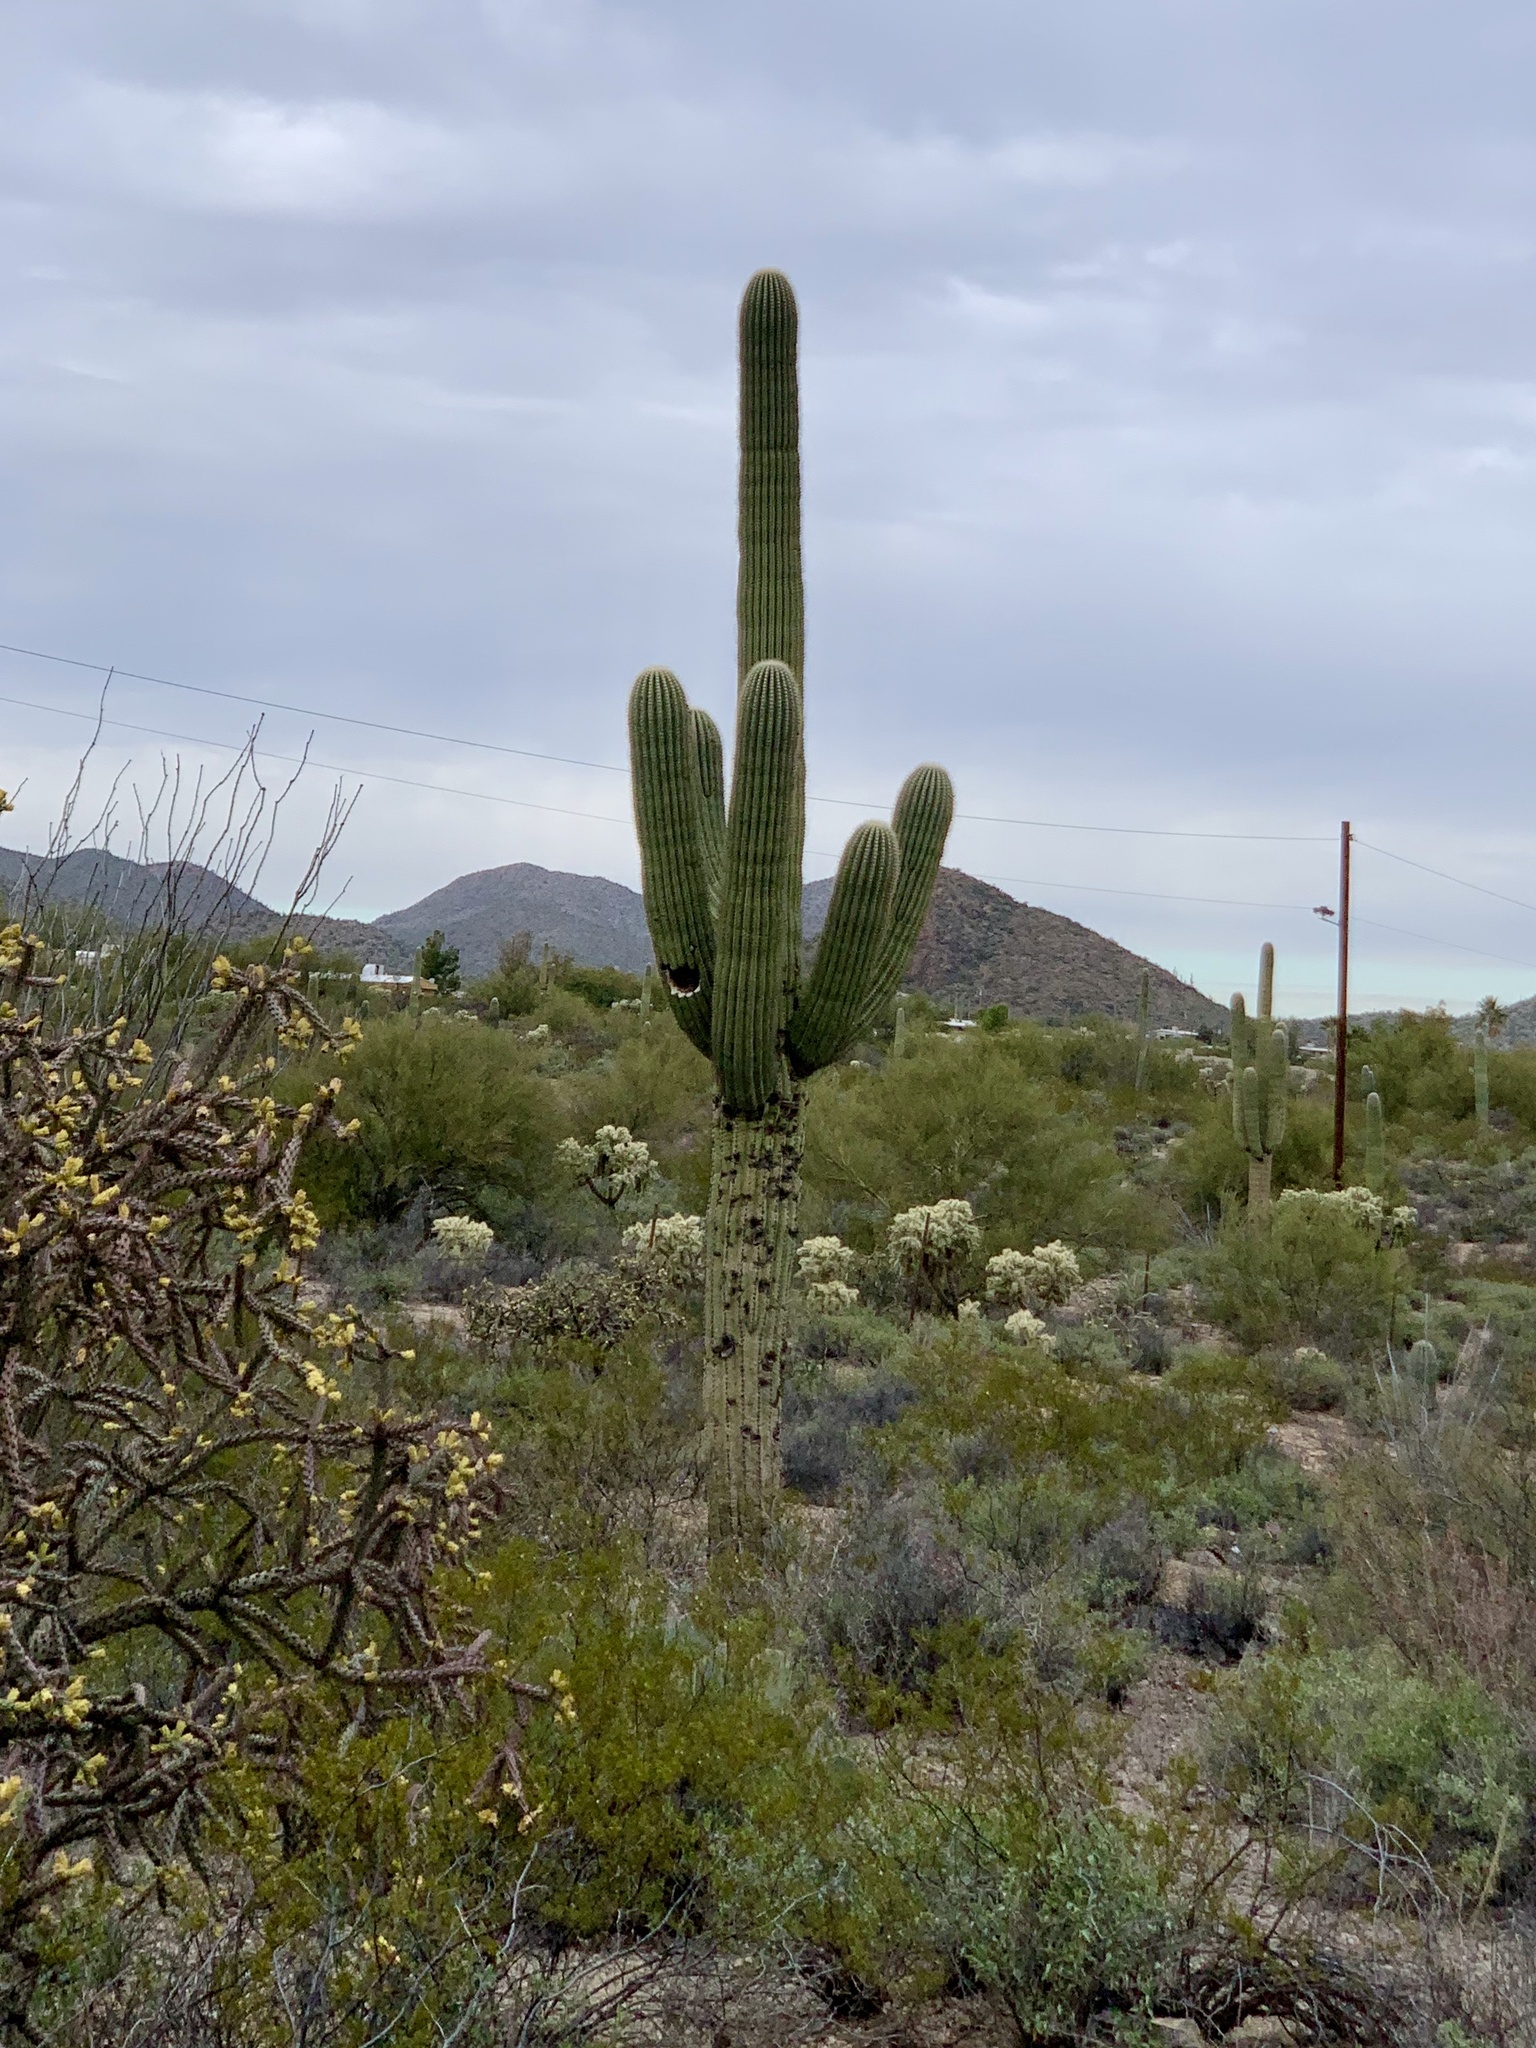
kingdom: Plantae
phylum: Tracheophyta
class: Magnoliopsida
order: Caryophyllales
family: Cactaceae
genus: Carnegiea
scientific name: Carnegiea gigantea
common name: Saguaro
